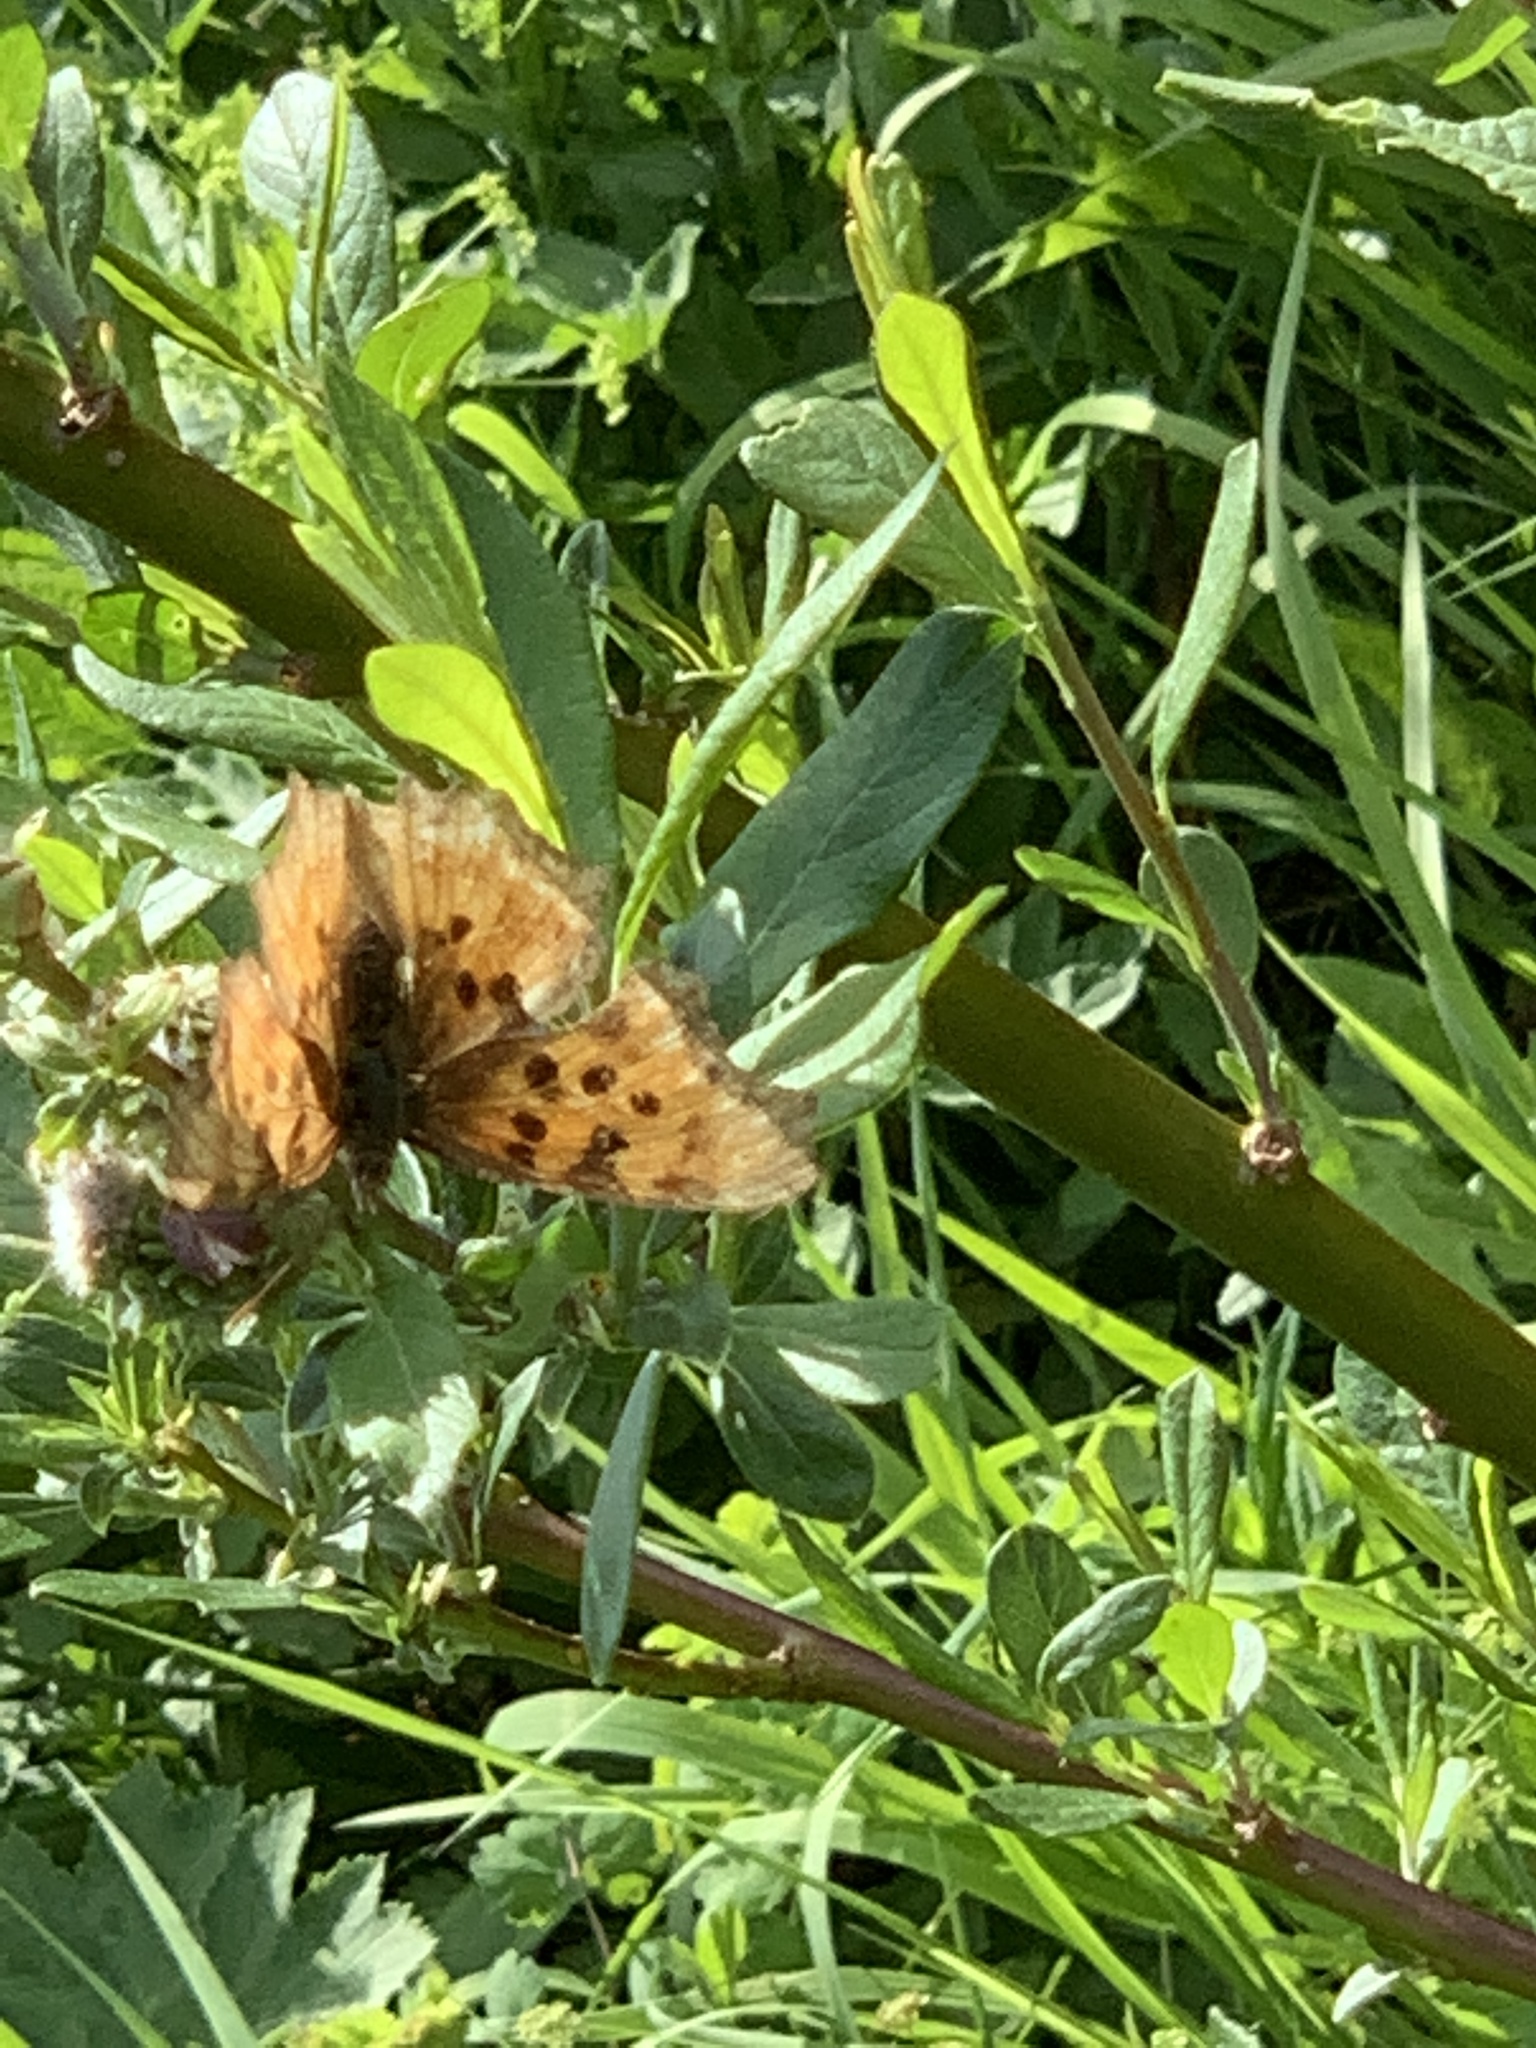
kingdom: Animalia
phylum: Arthropoda
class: Insecta
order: Lepidoptera
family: Nymphalidae
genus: Polygonia
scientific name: Polygonia satyrus
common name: Satyr angle wing
